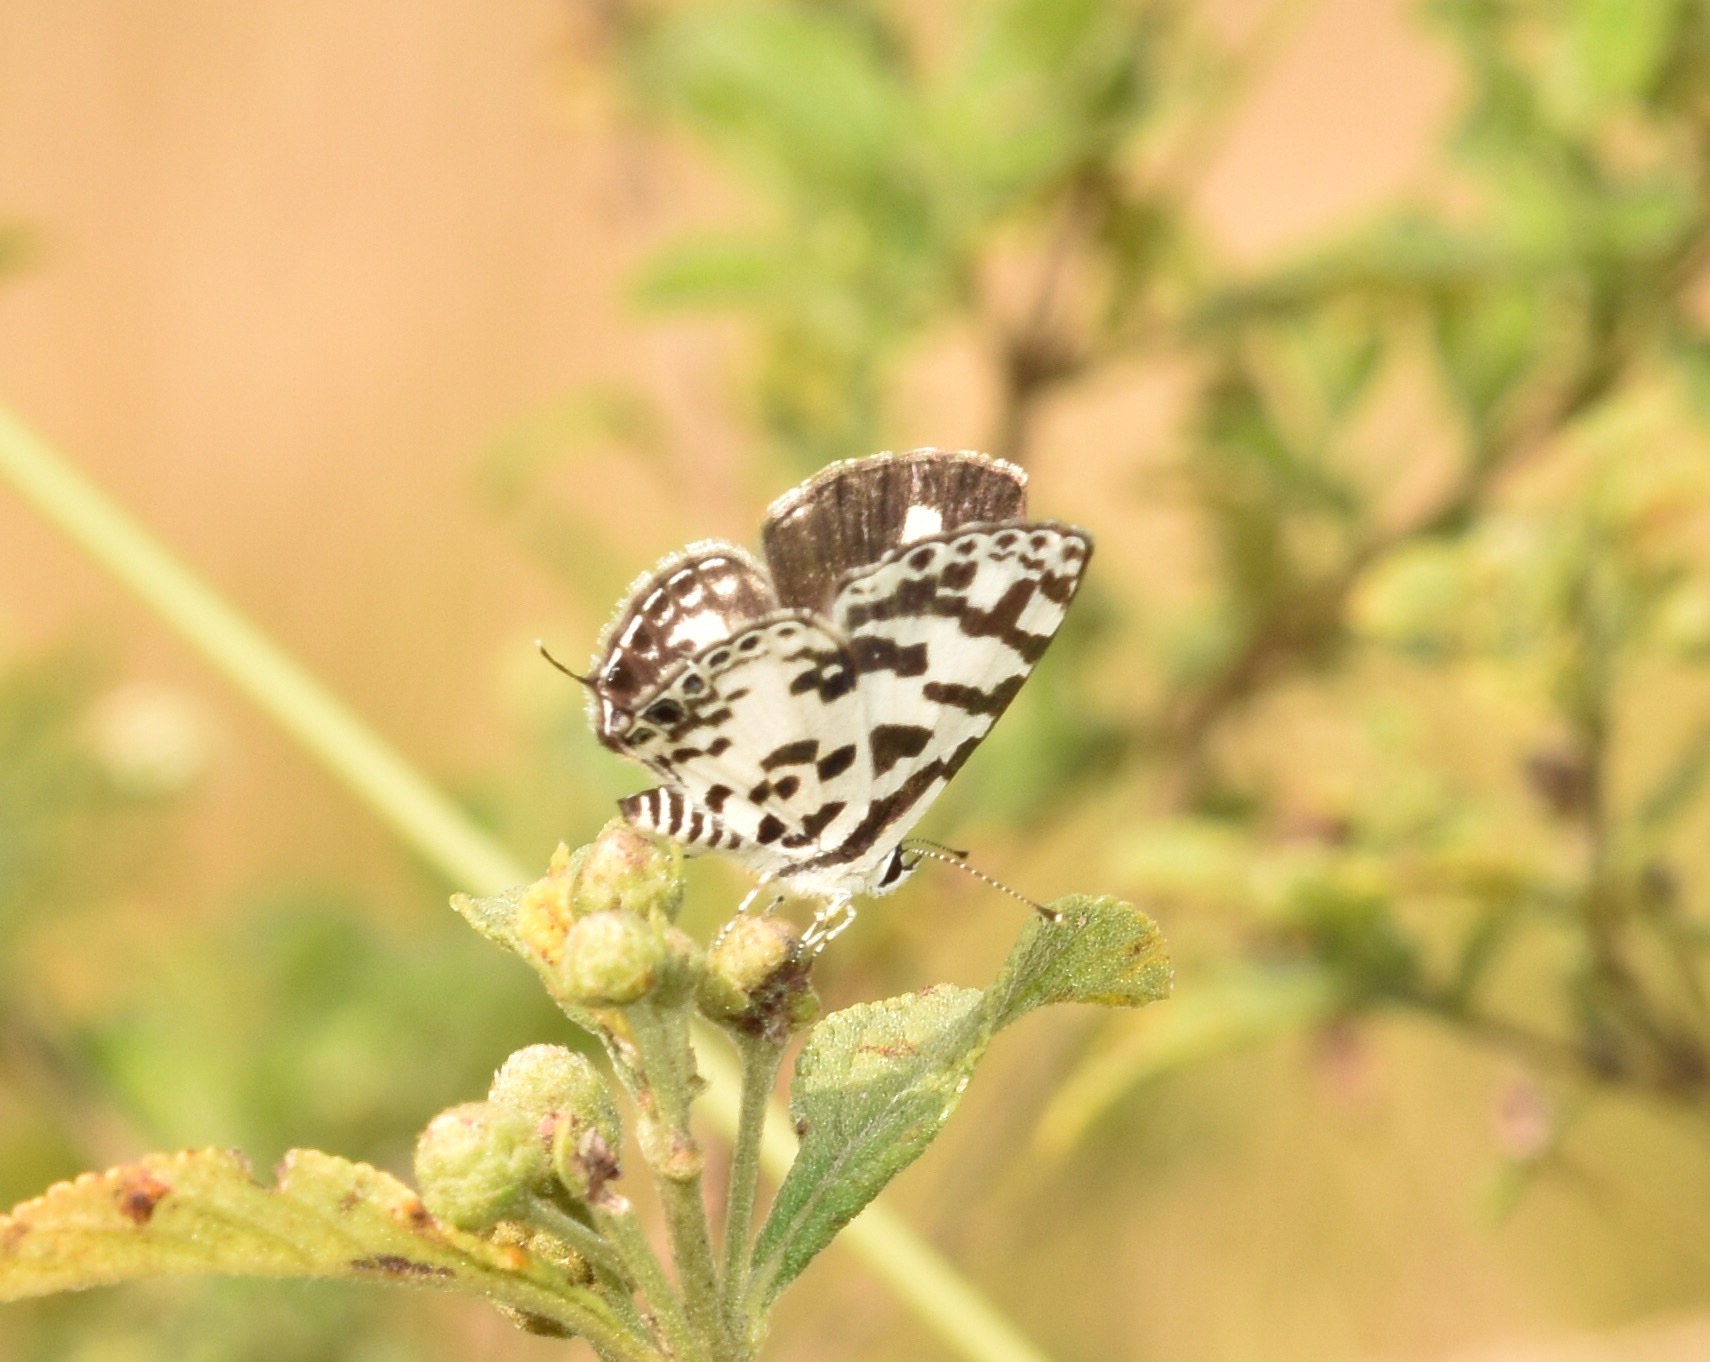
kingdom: Animalia
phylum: Arthropoda
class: Insecta
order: Lepidoptera
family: Lycaenidae
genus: Castalius
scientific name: Castalius melaena
